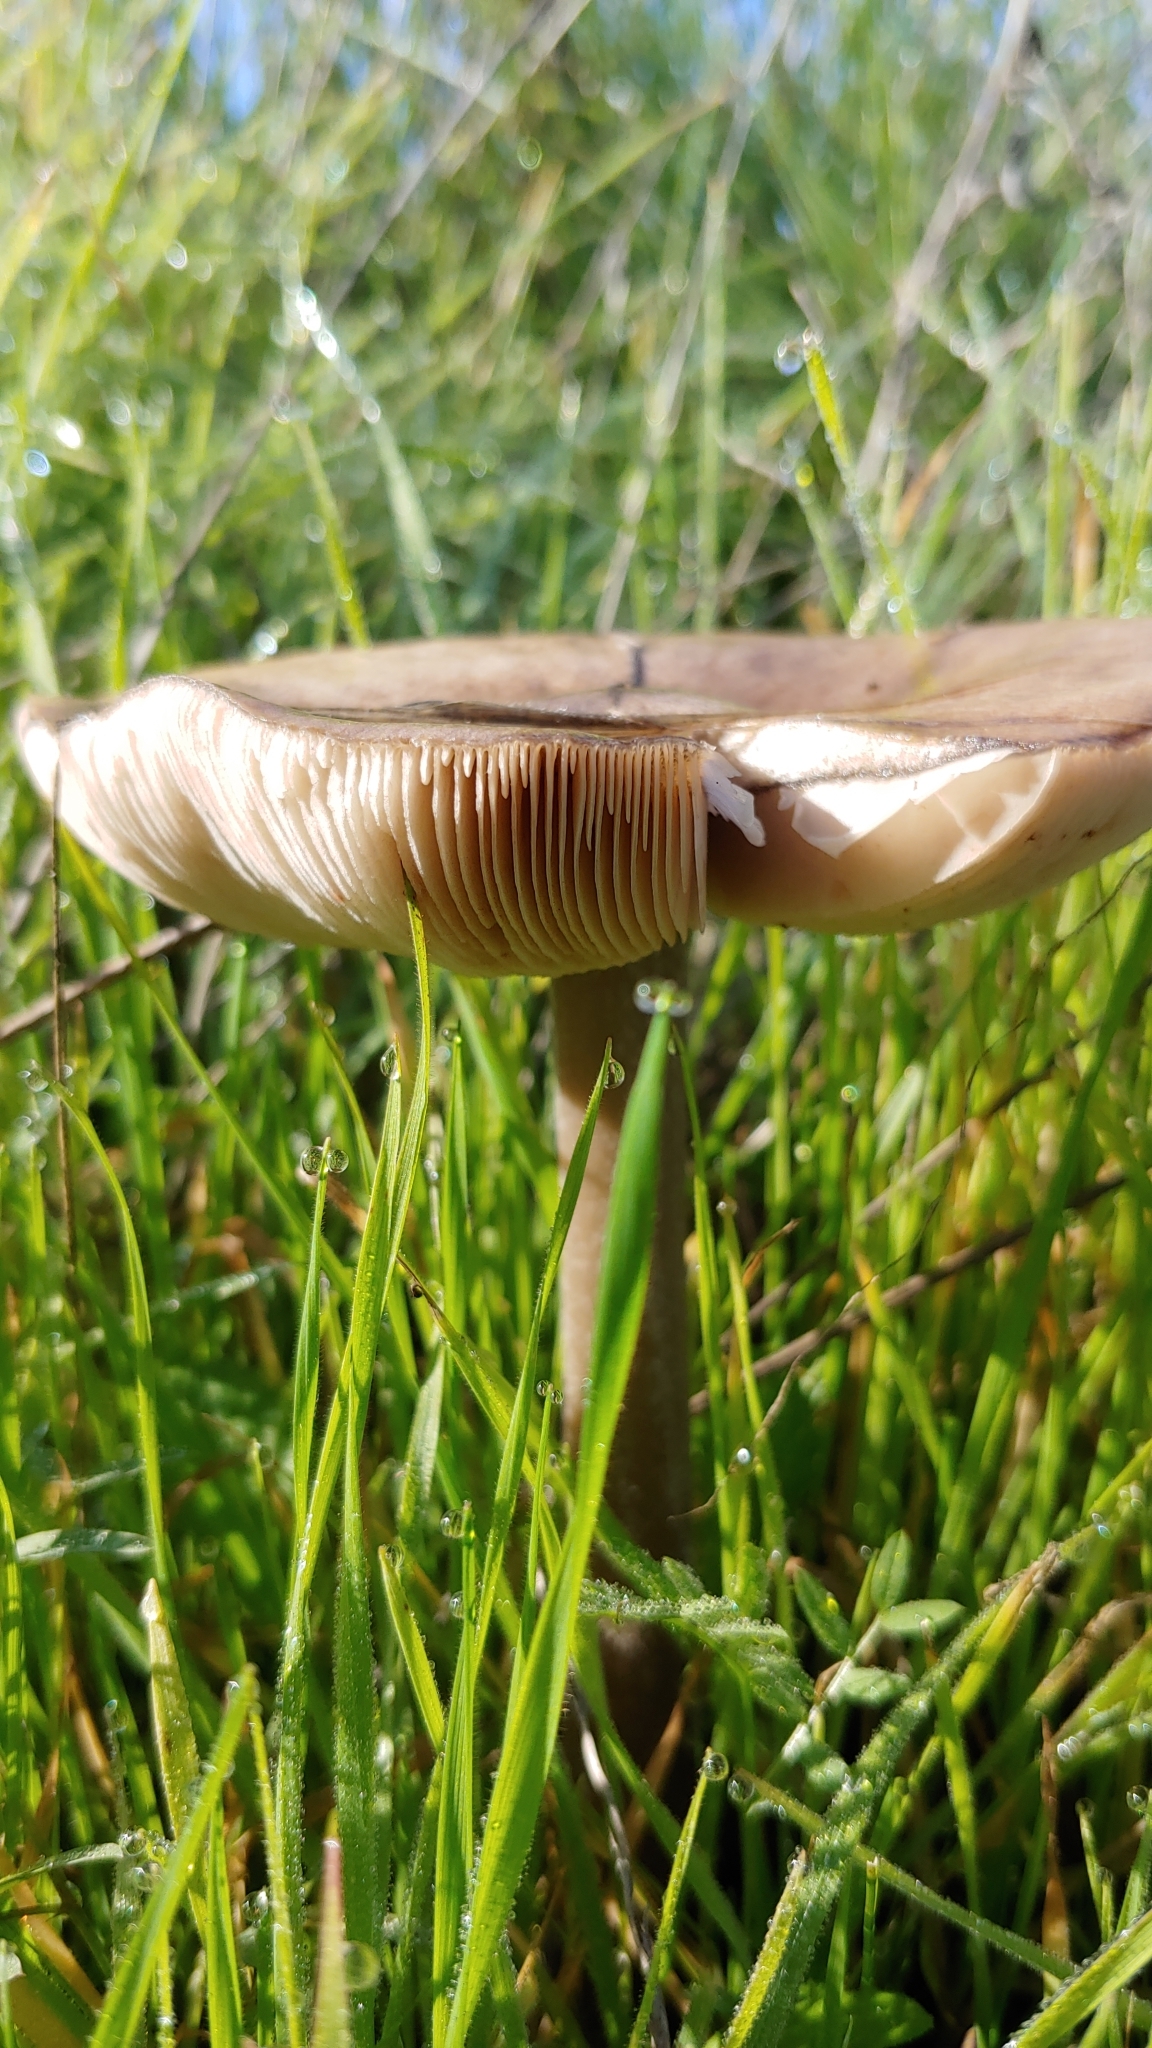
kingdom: Fungi
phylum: Basidiomycota
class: Agaricomycetes
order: Agaricales
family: Pluteaceae
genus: Volvopluteus
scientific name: Volvopluteus gloiocephalus
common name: Stubble rosegill
